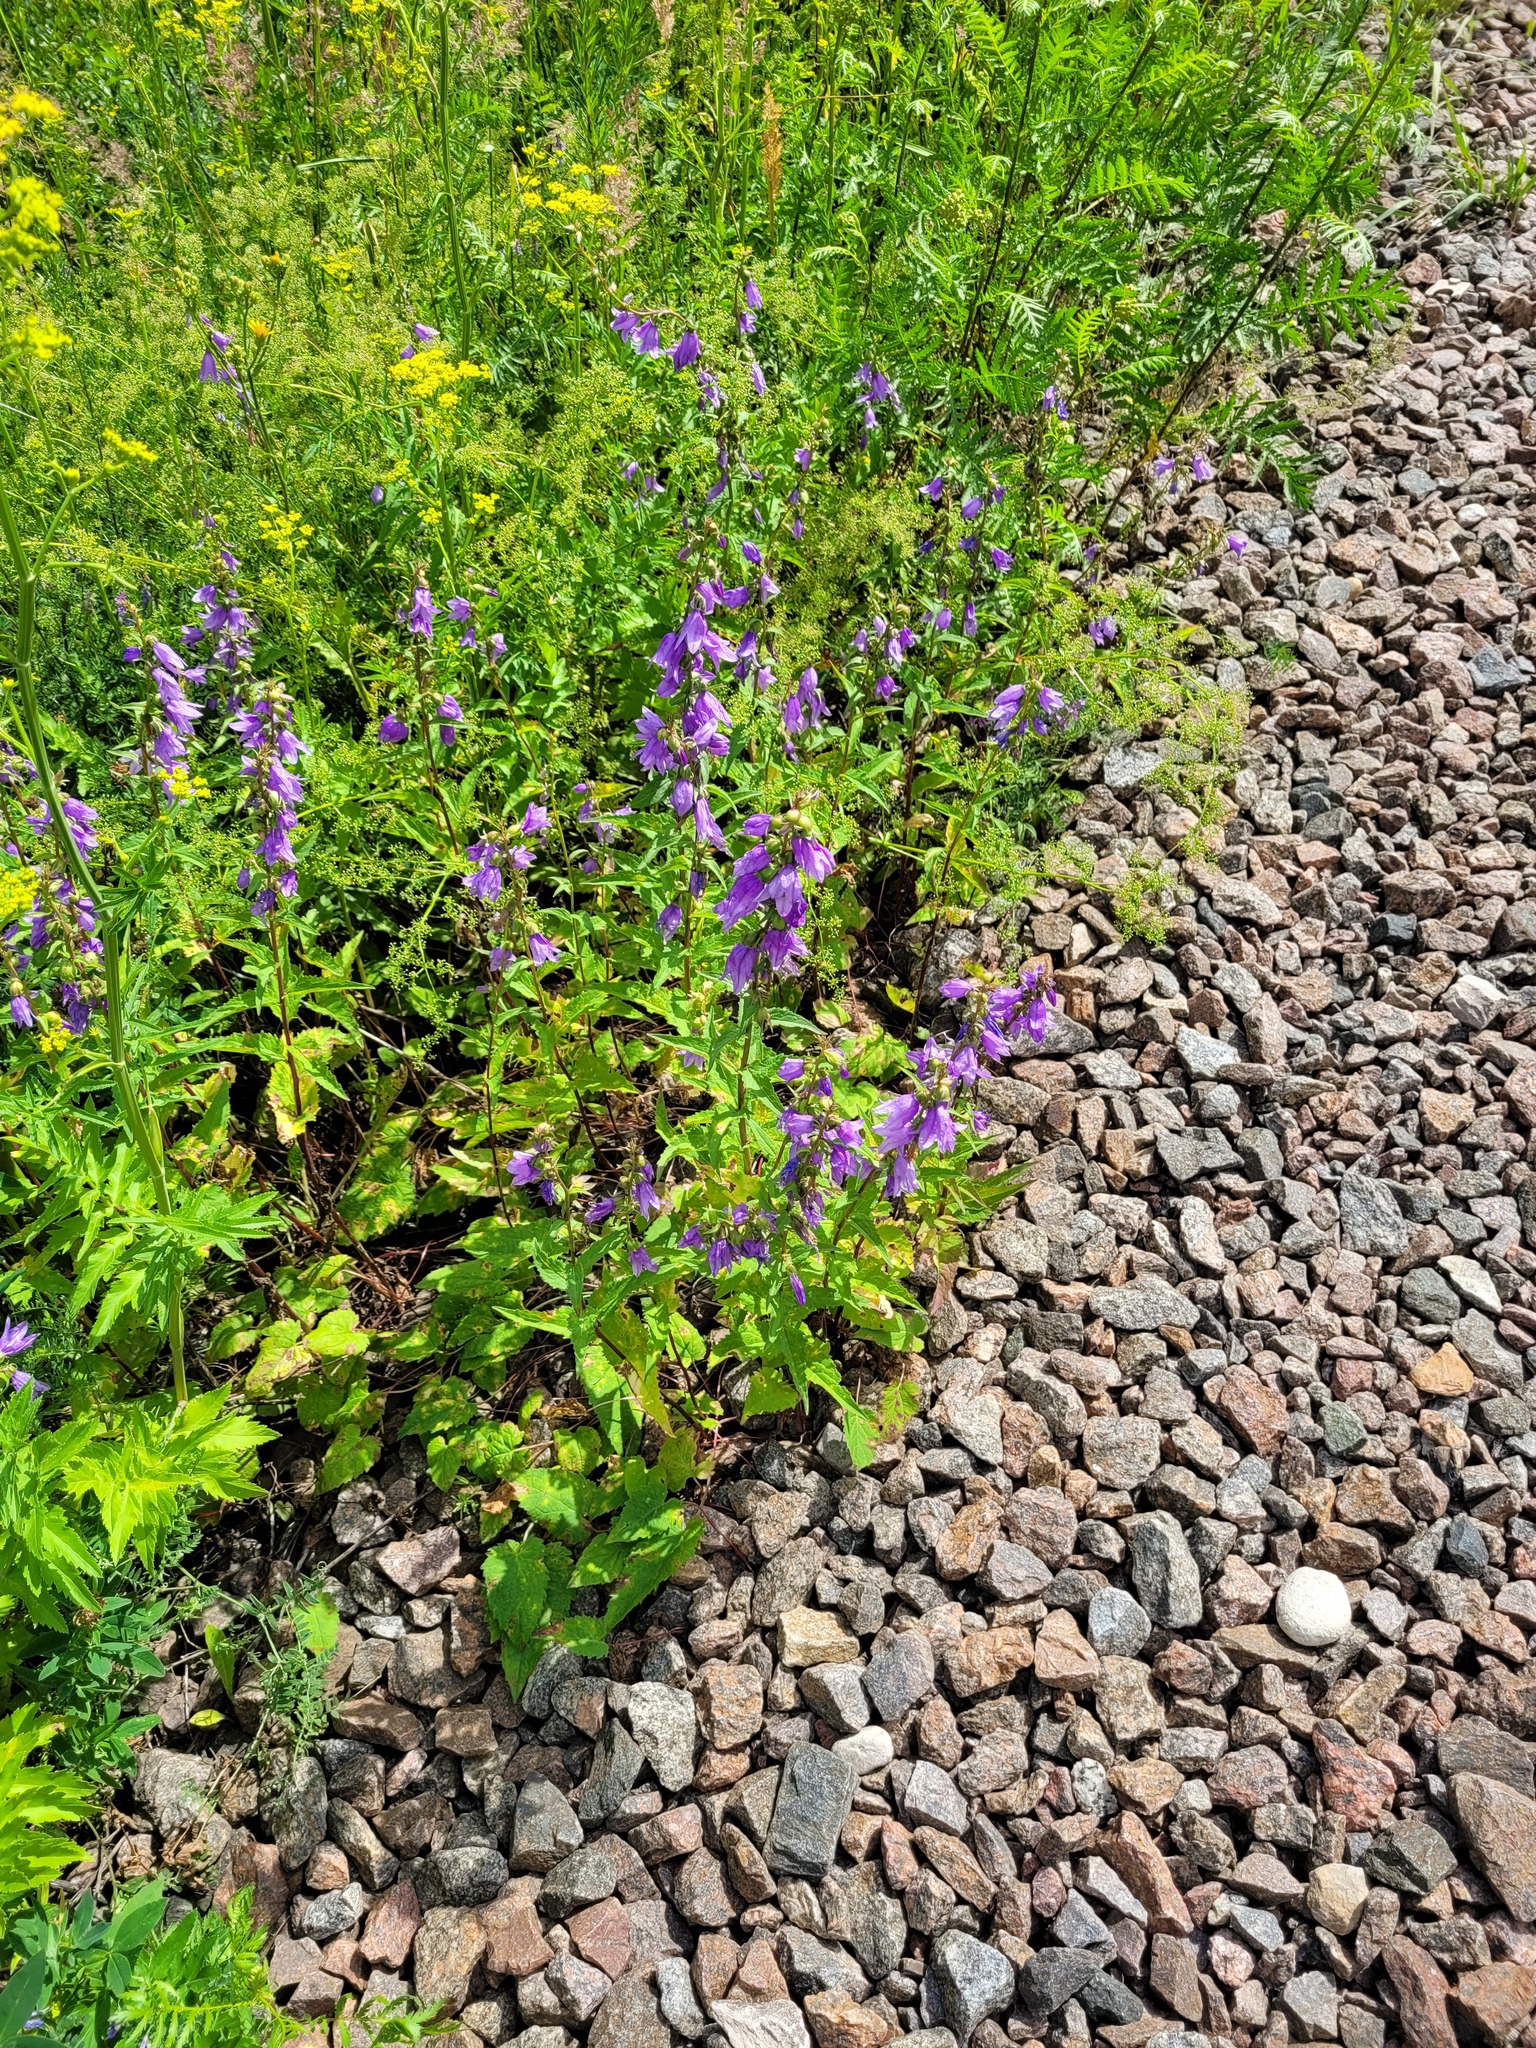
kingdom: Plantae
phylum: Tracheophyta
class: Magnoliopsida
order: Asterales
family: Campanulaceae
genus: Campanula
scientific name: Campanula rapunculoides
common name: Creeping bellflower
